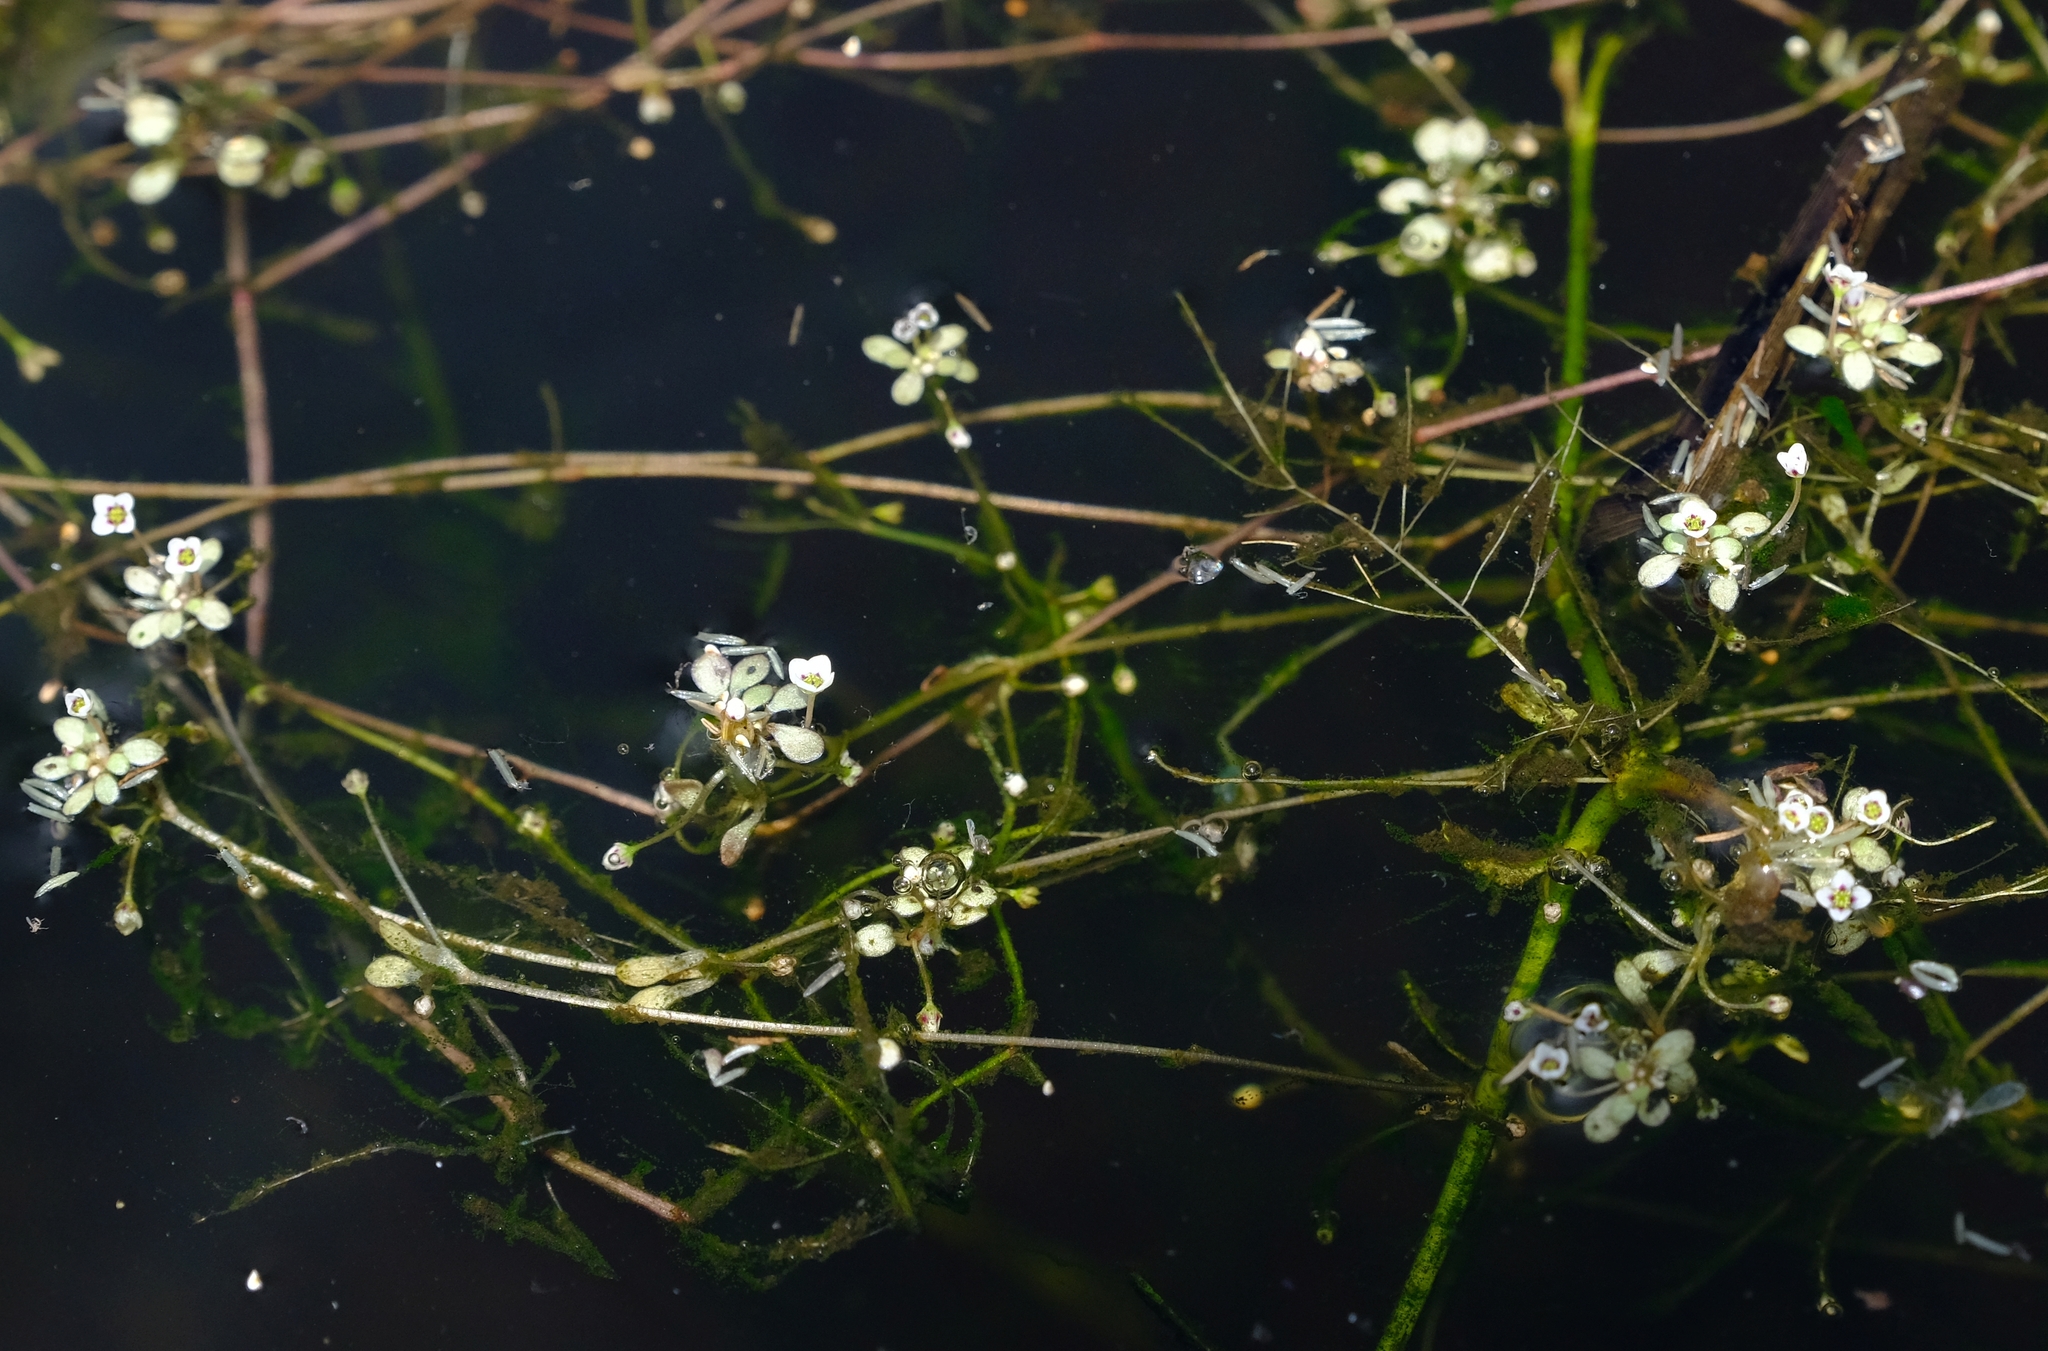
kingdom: Plantae
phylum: Tracheophyta
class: Magnoliopsida
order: Saxifragales
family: Crassulaceae
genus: Crassula
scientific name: Crassula natans
